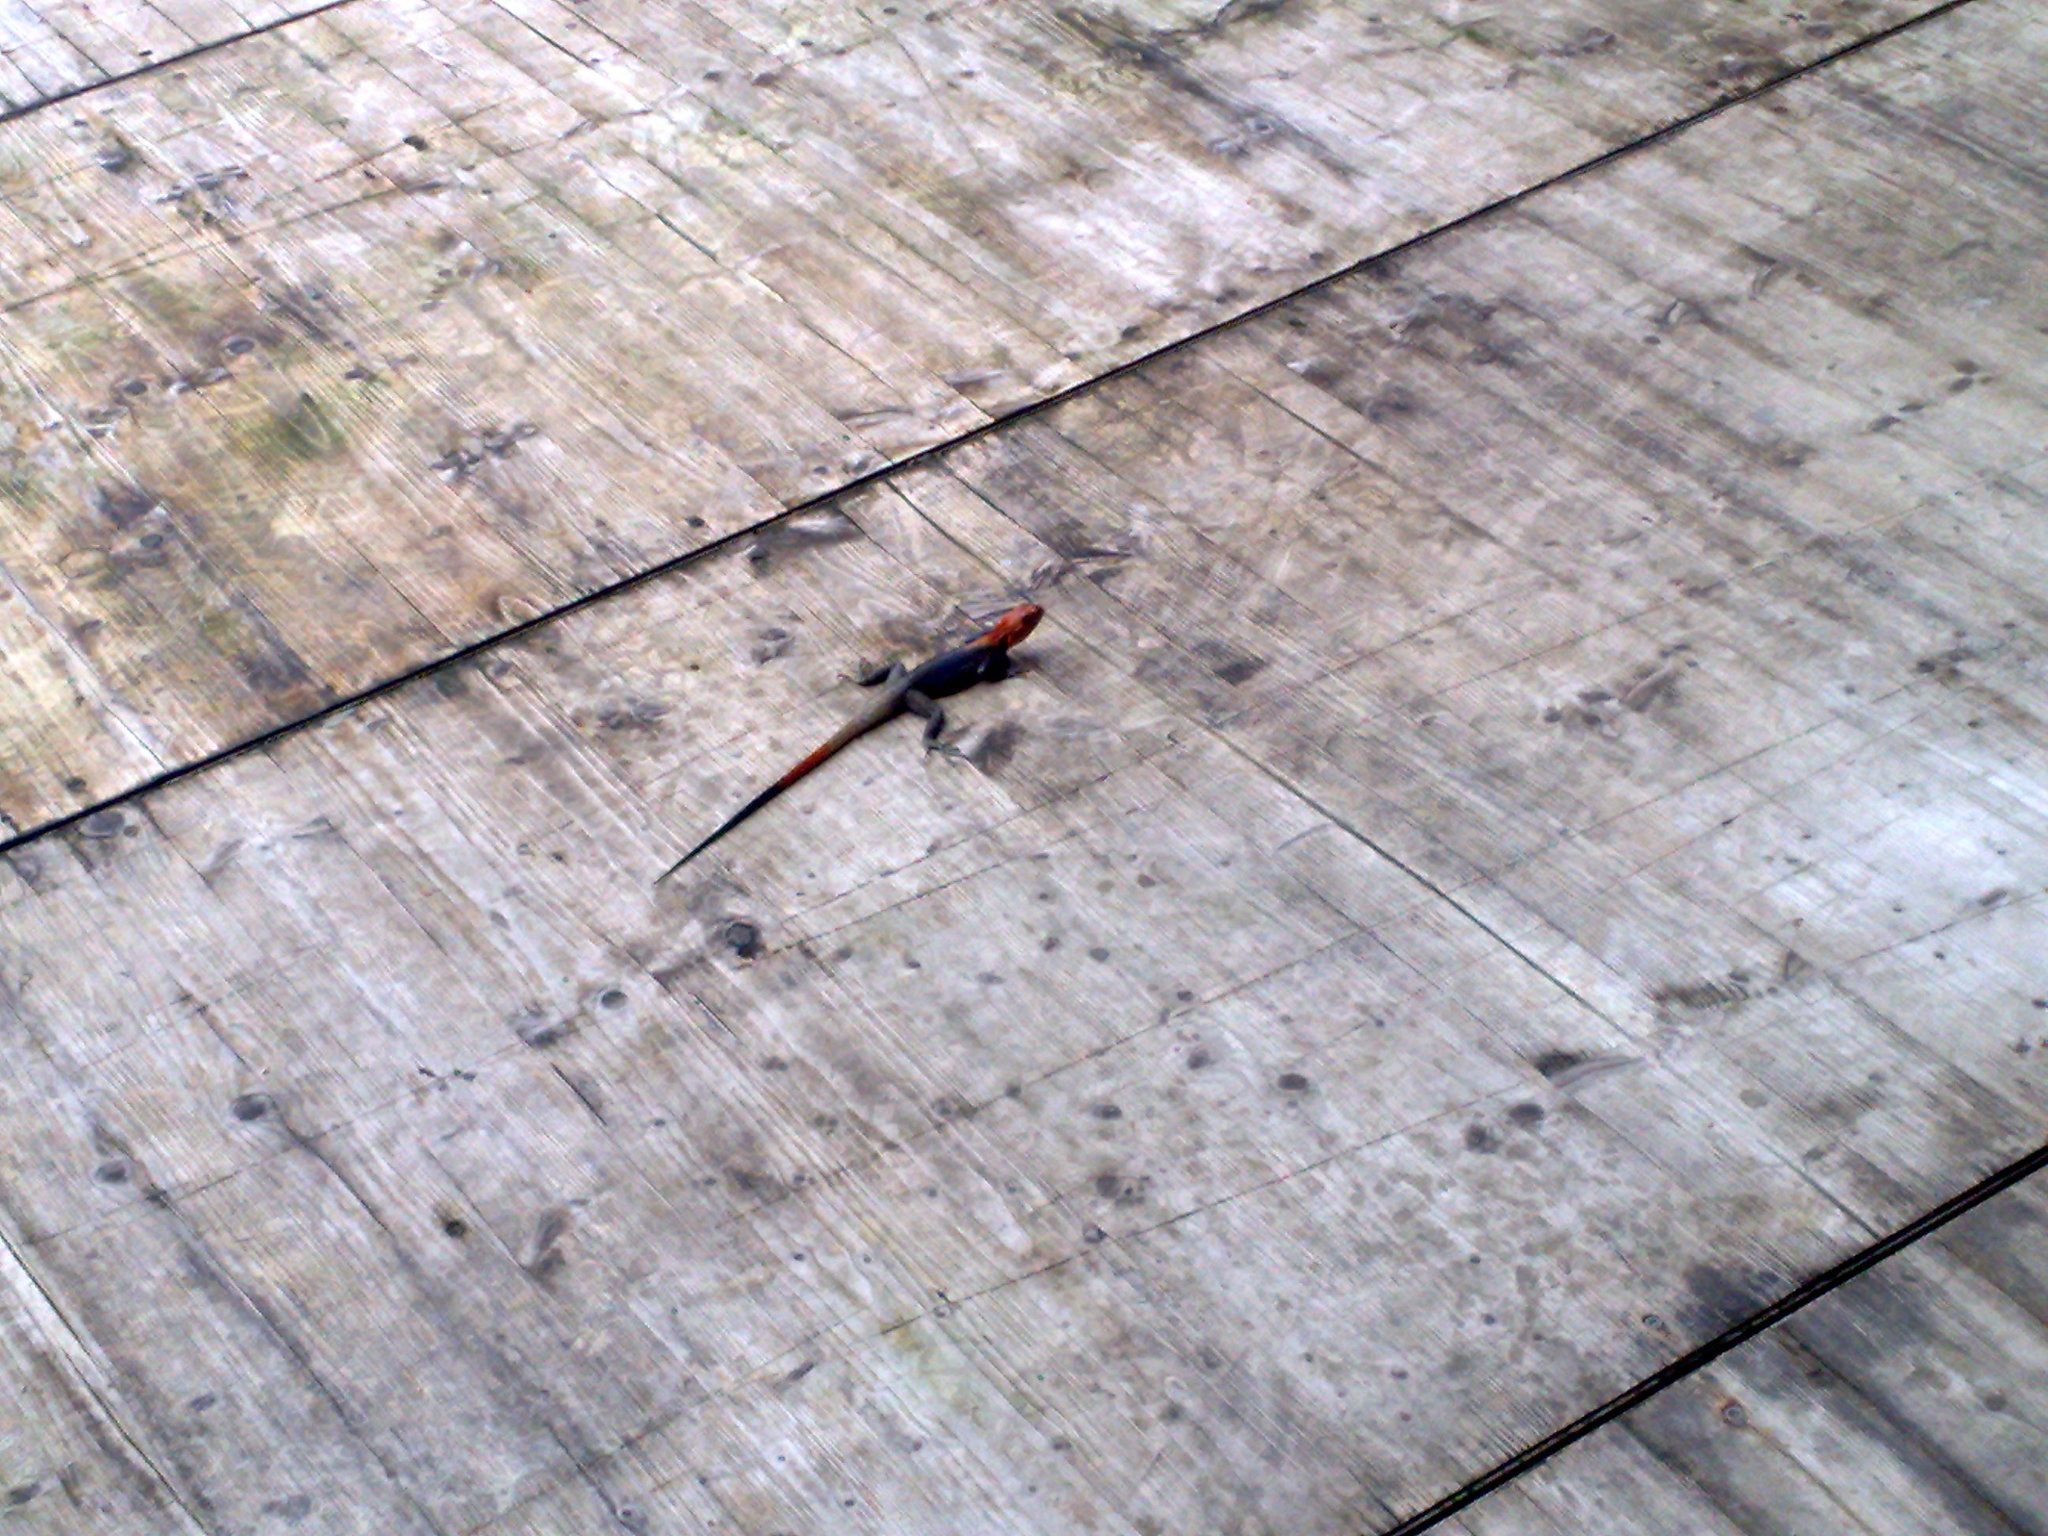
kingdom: Animalia
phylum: Chordata
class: Squamata
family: Agamidae
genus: Agama
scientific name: Agama agama
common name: Common agama
